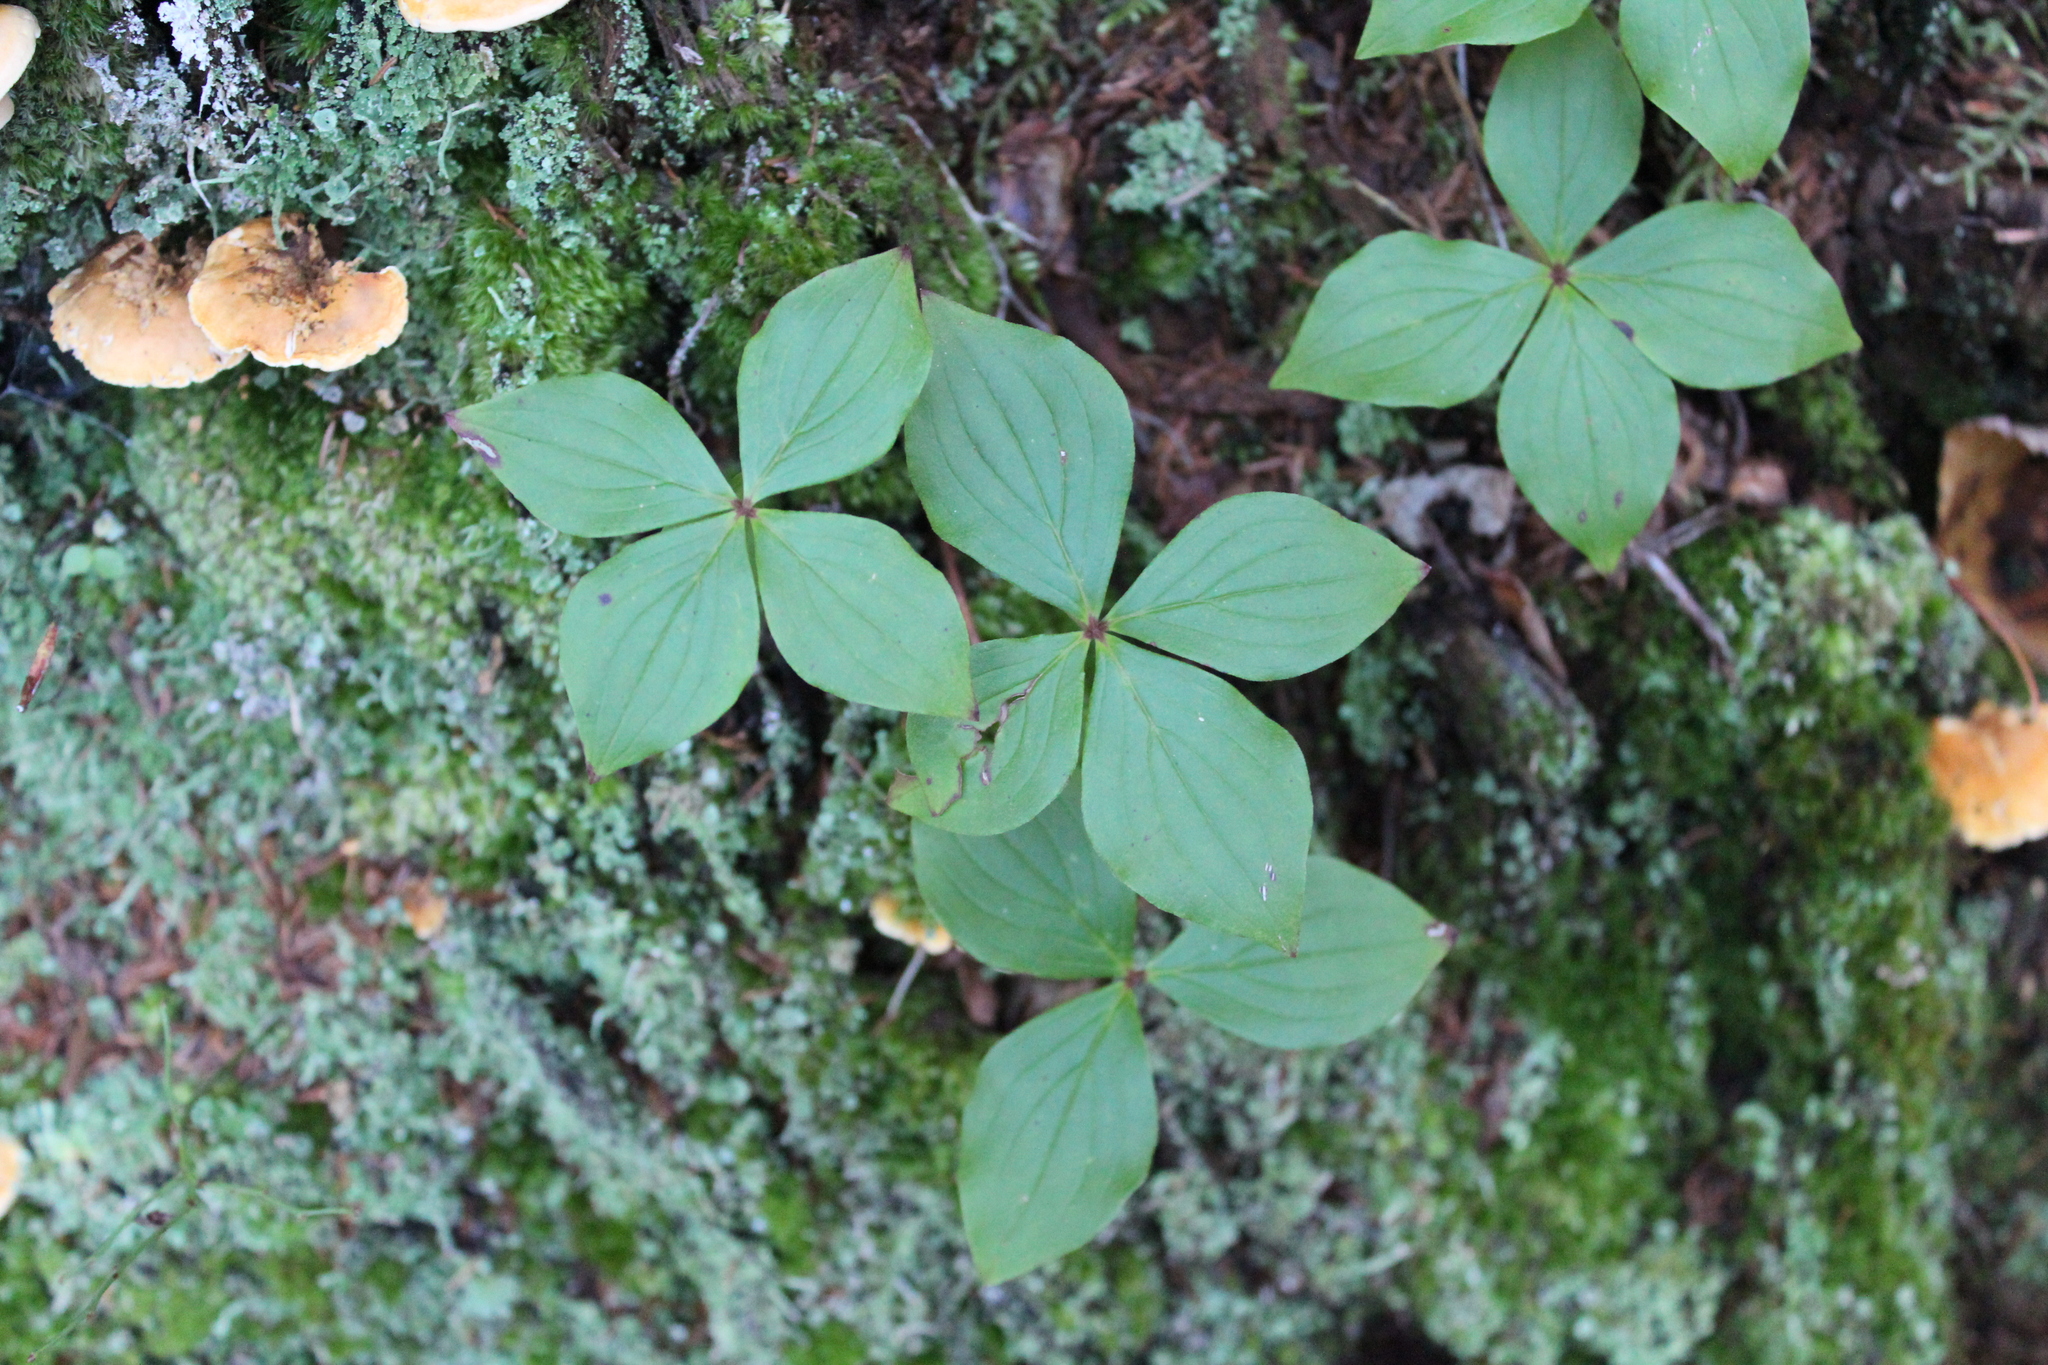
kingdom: Plantae
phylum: Tracheophyta
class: Magnoliopsida
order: Cornales
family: Cornaceae
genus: Cornus
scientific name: Cornus canadensis
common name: Creeping dogwood
